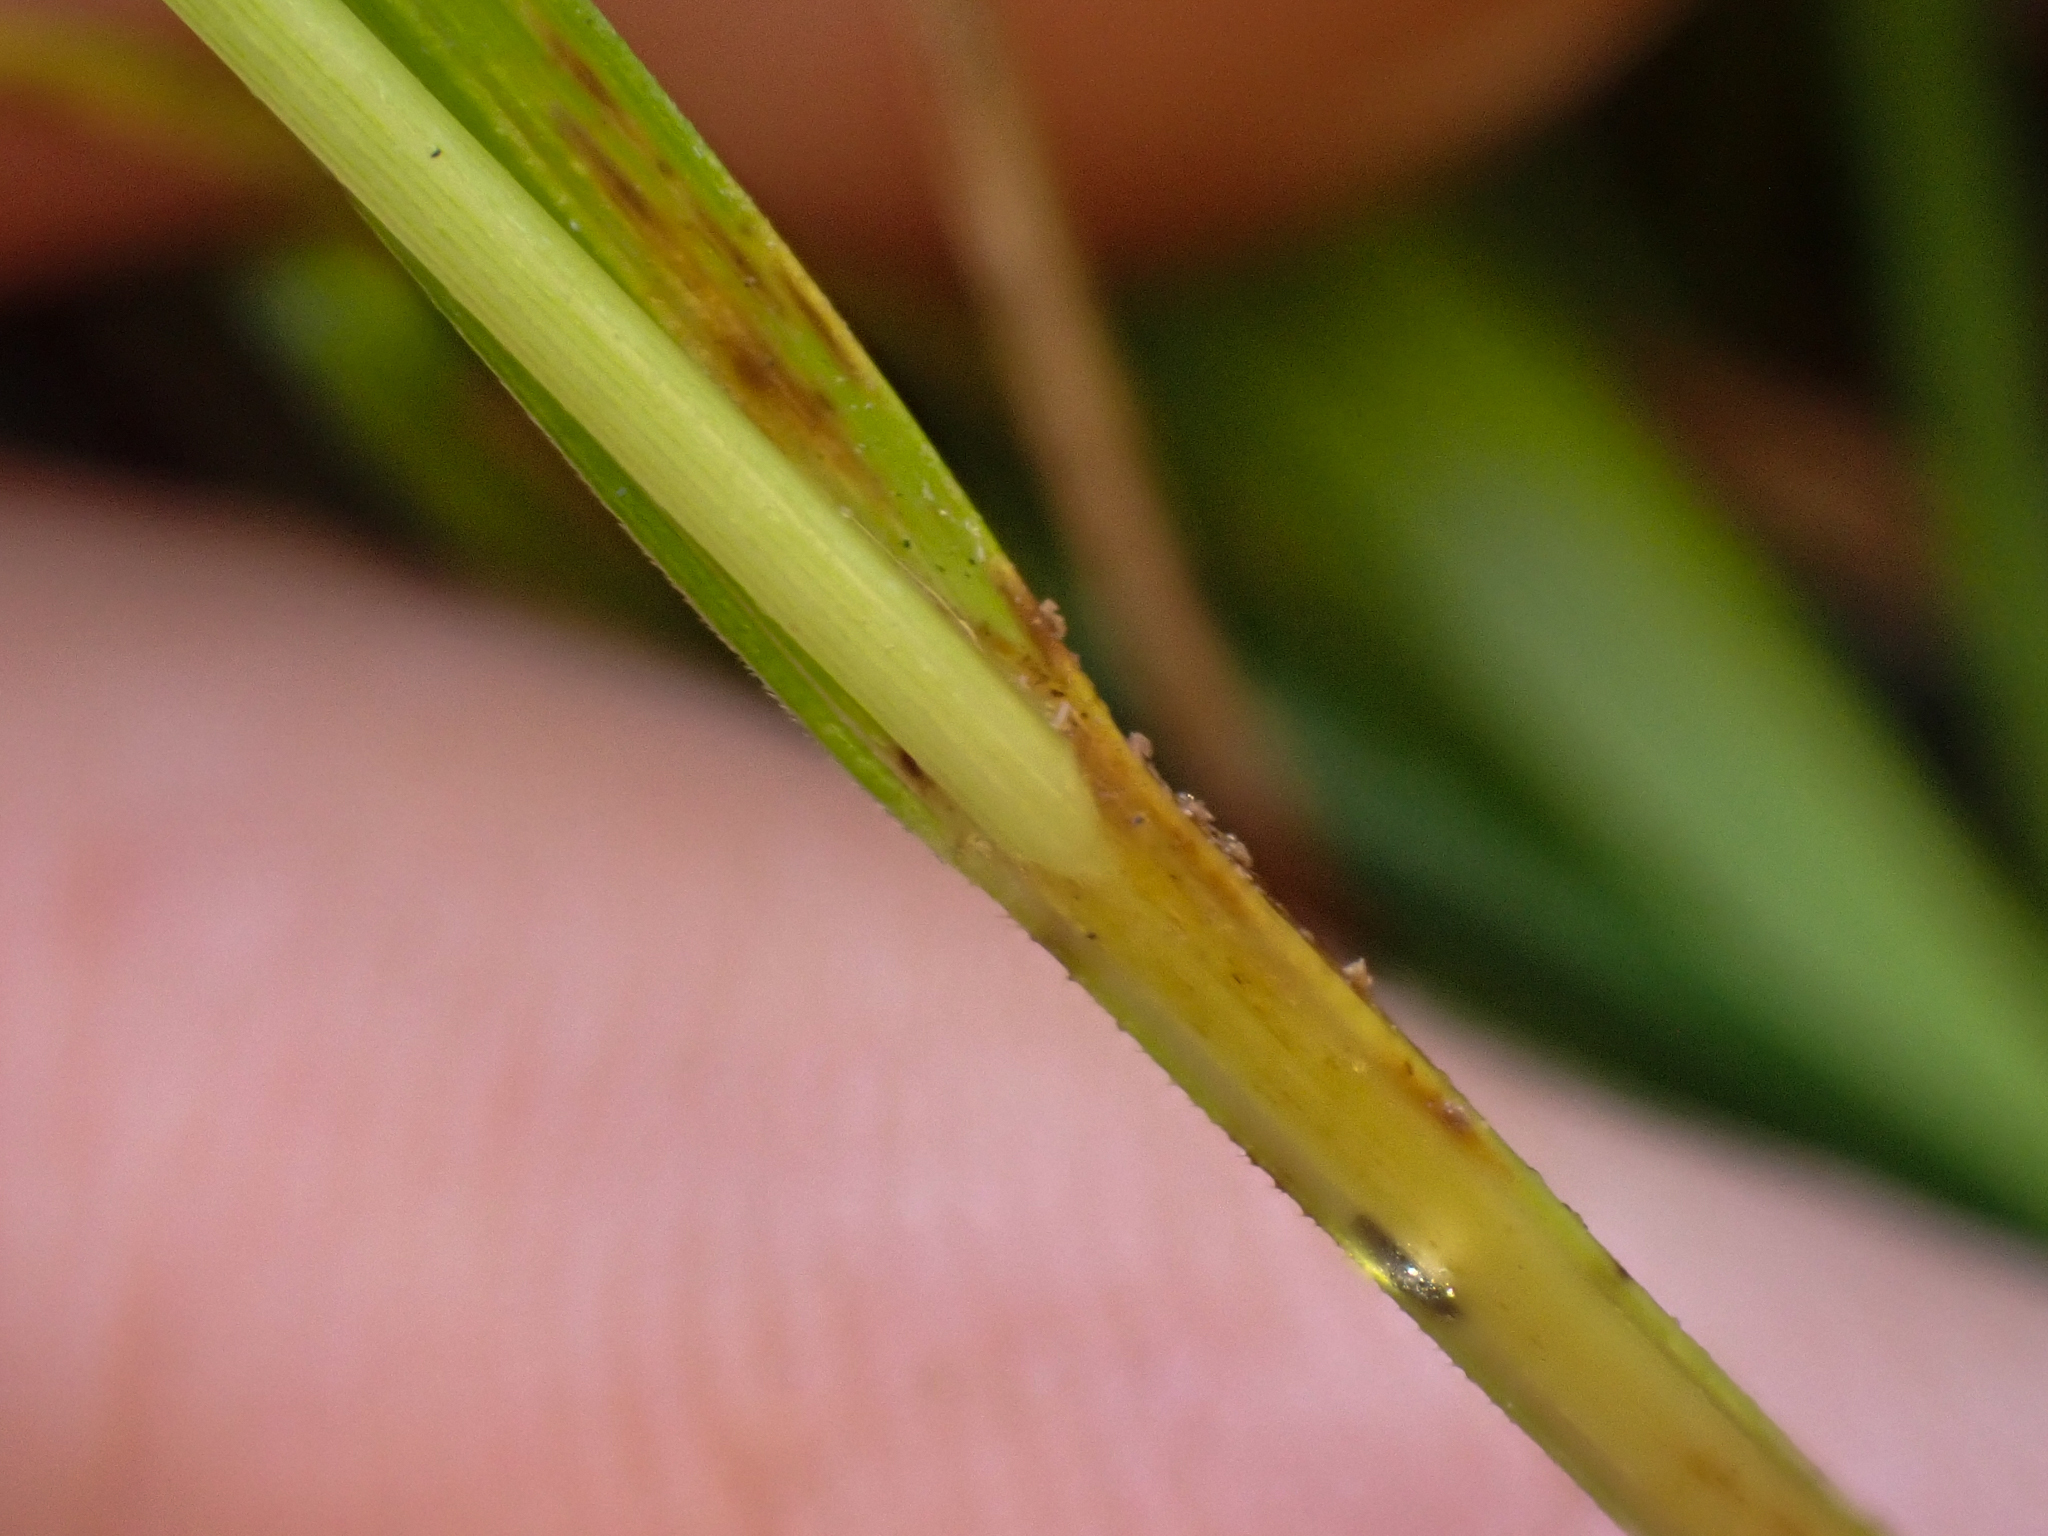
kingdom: Plantae
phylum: Tracheophyta
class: Liliopsida
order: Poales
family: Cyperaceae
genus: Carex
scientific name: Carex mendocinensis
